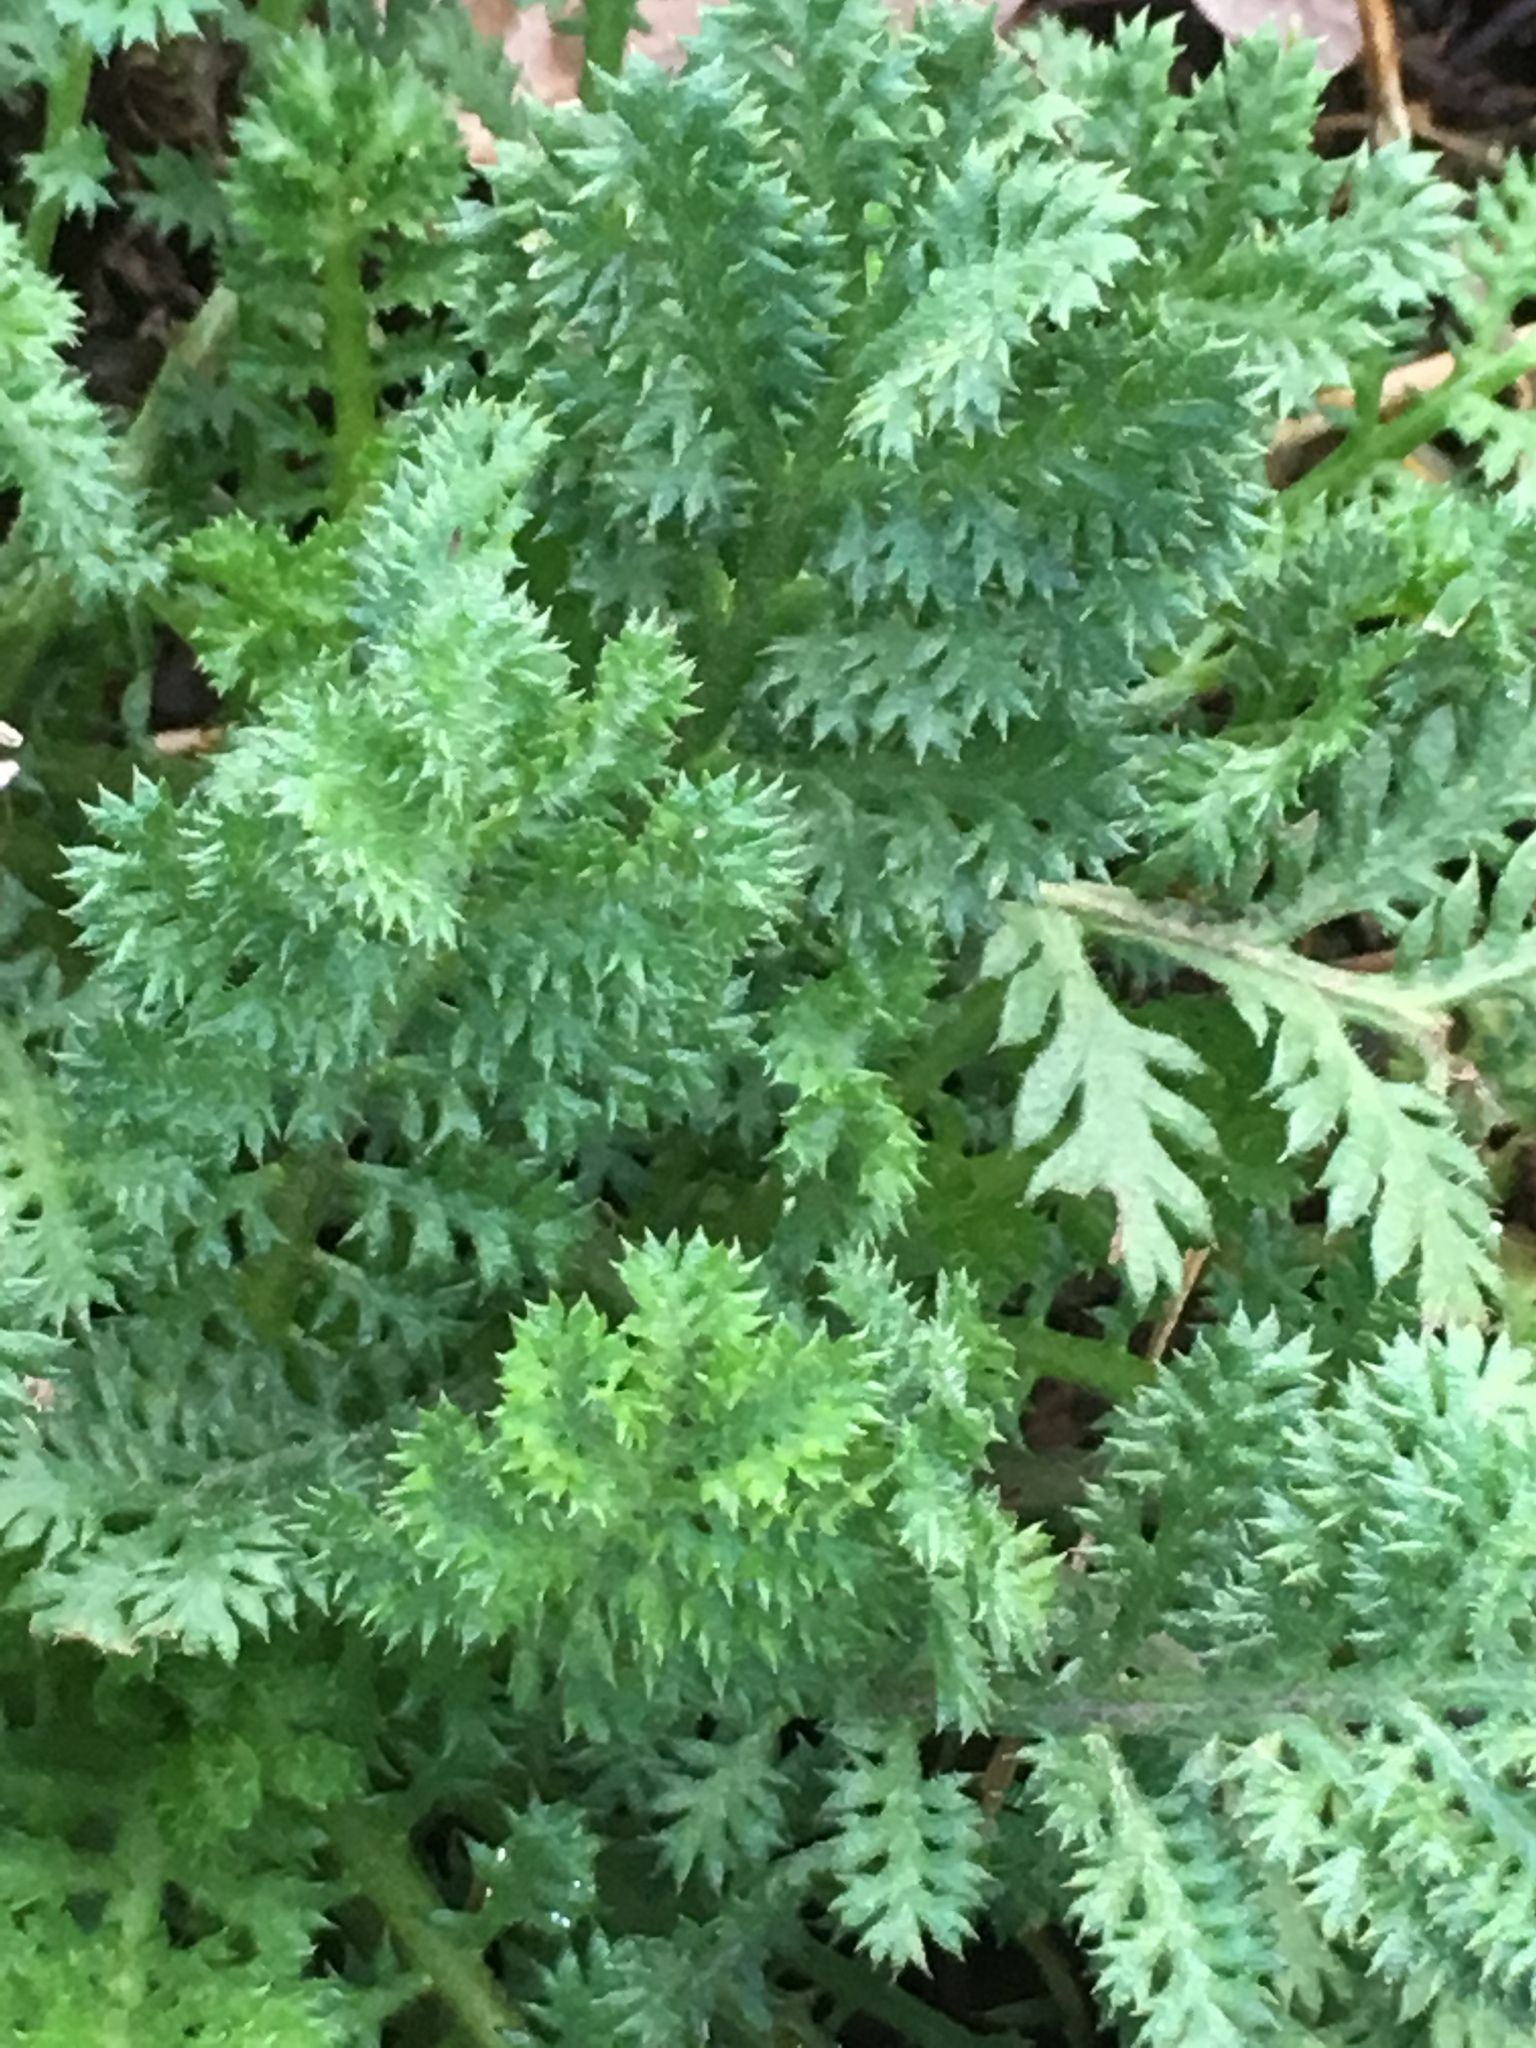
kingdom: Plantae
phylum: Tracheophyta
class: Magnoliopsida
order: Asterales
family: Asteraceae
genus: Tanacetum
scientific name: Tanacetum vulgare
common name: Common tansy
